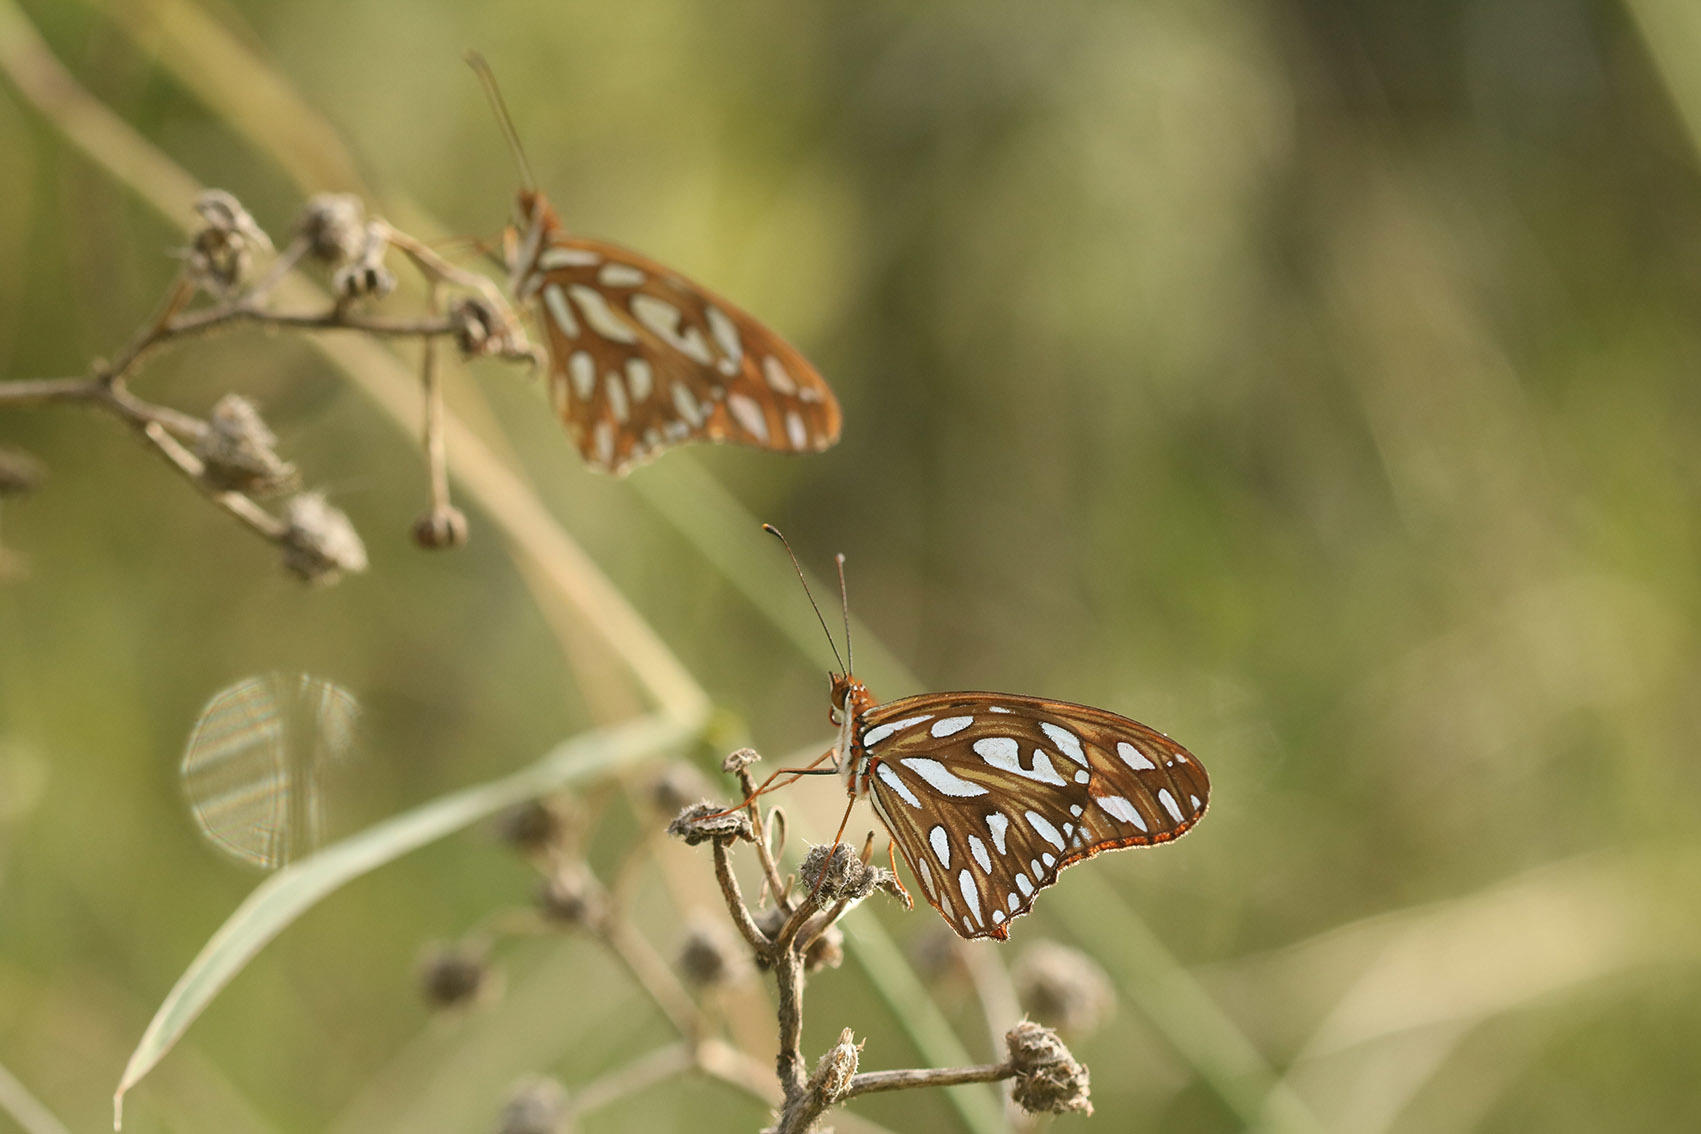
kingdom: Animalia
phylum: Arthropoda
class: Insecta
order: Lepidoptera
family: Nymphalidae
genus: Dione
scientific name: Dione vanillae
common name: Gulf fritillary
